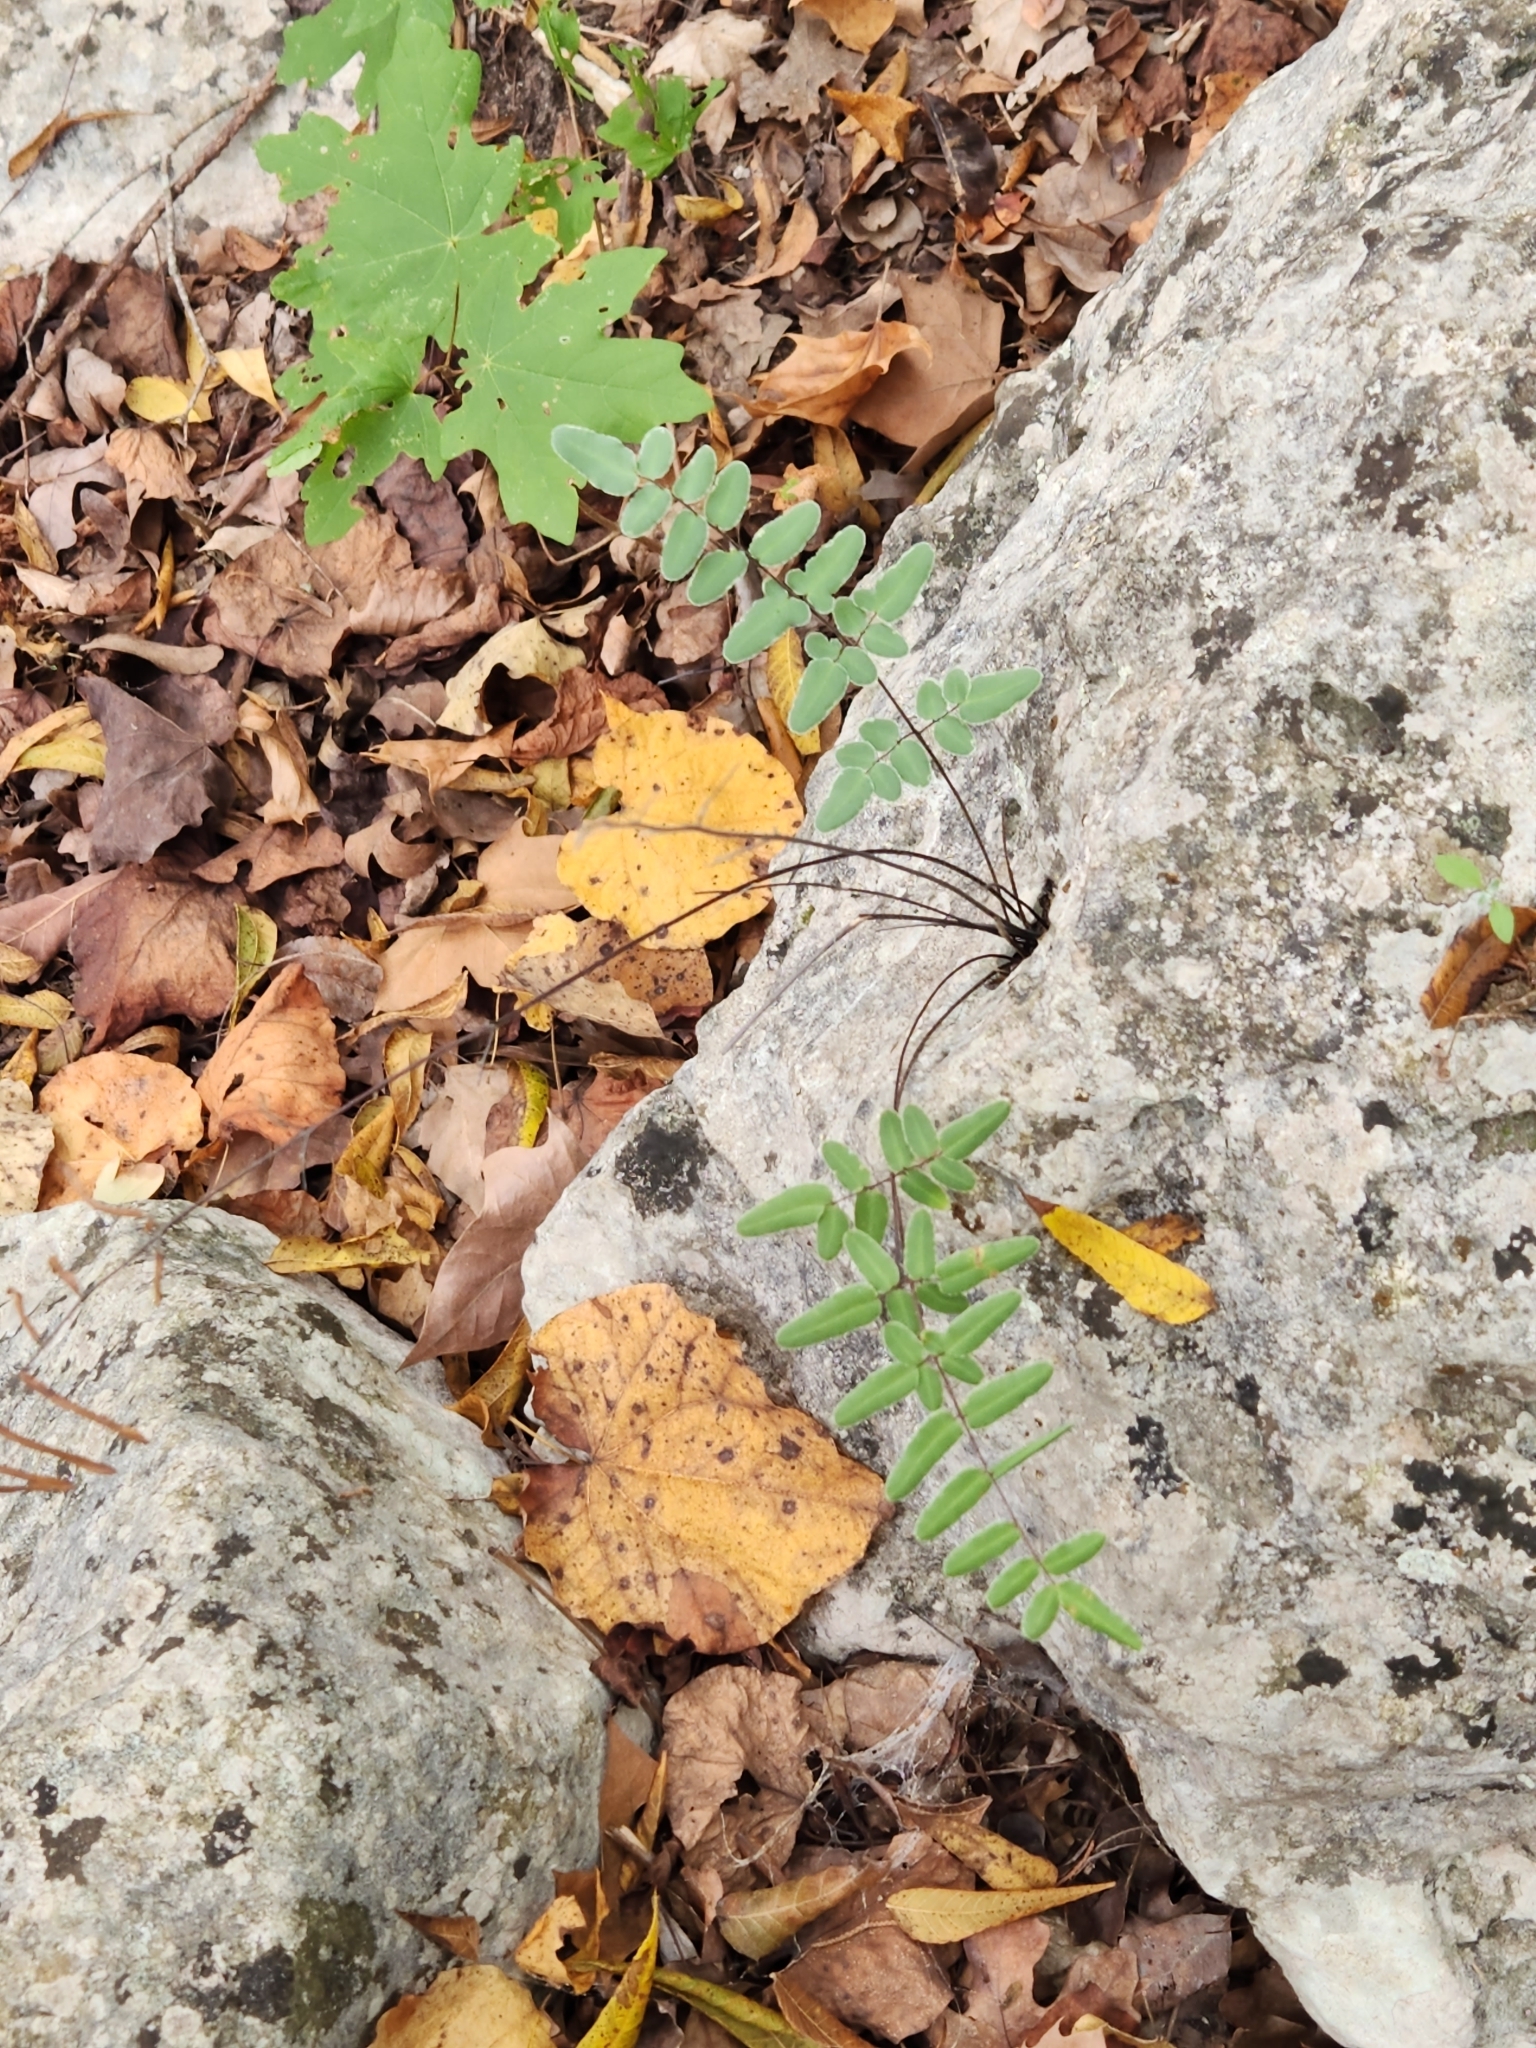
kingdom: Plantae
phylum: Tracheophyta
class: Polypodiopsida
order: Polypodiales
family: Pteridaceae
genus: Pellaea
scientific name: Pellaea atropurpurea
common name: Hairy cliffbrake
